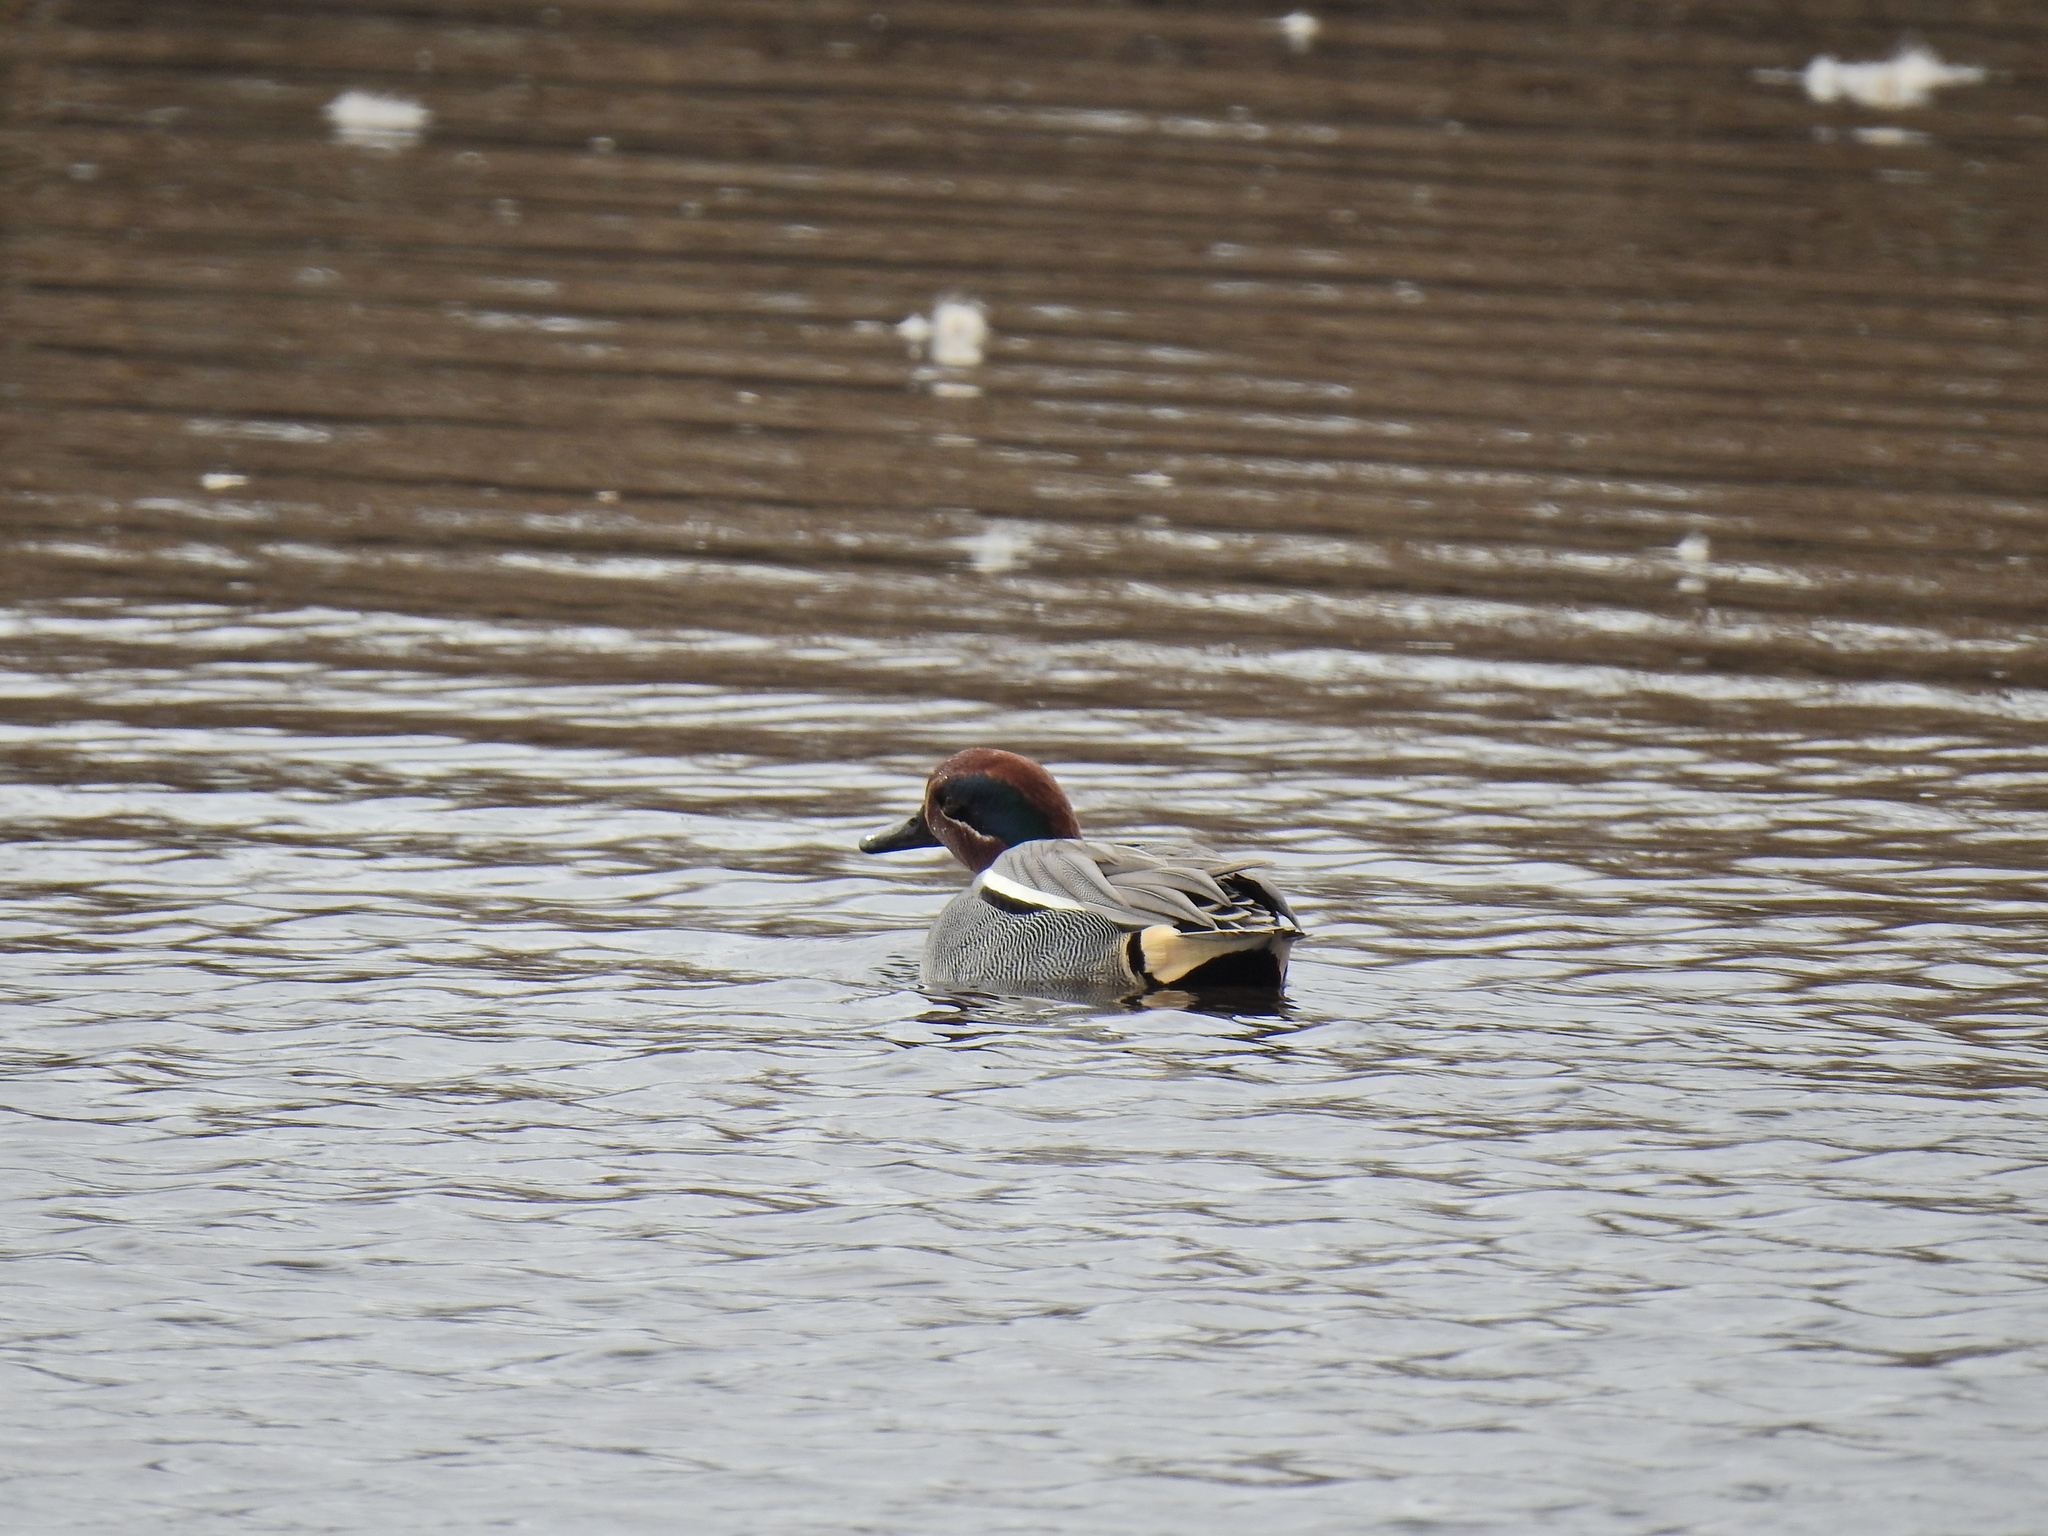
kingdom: Animalia
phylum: Chordata
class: Aves
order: Anseriformes
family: Anatidae
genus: Anas
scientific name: Anas crecca
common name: Eurasian teal
